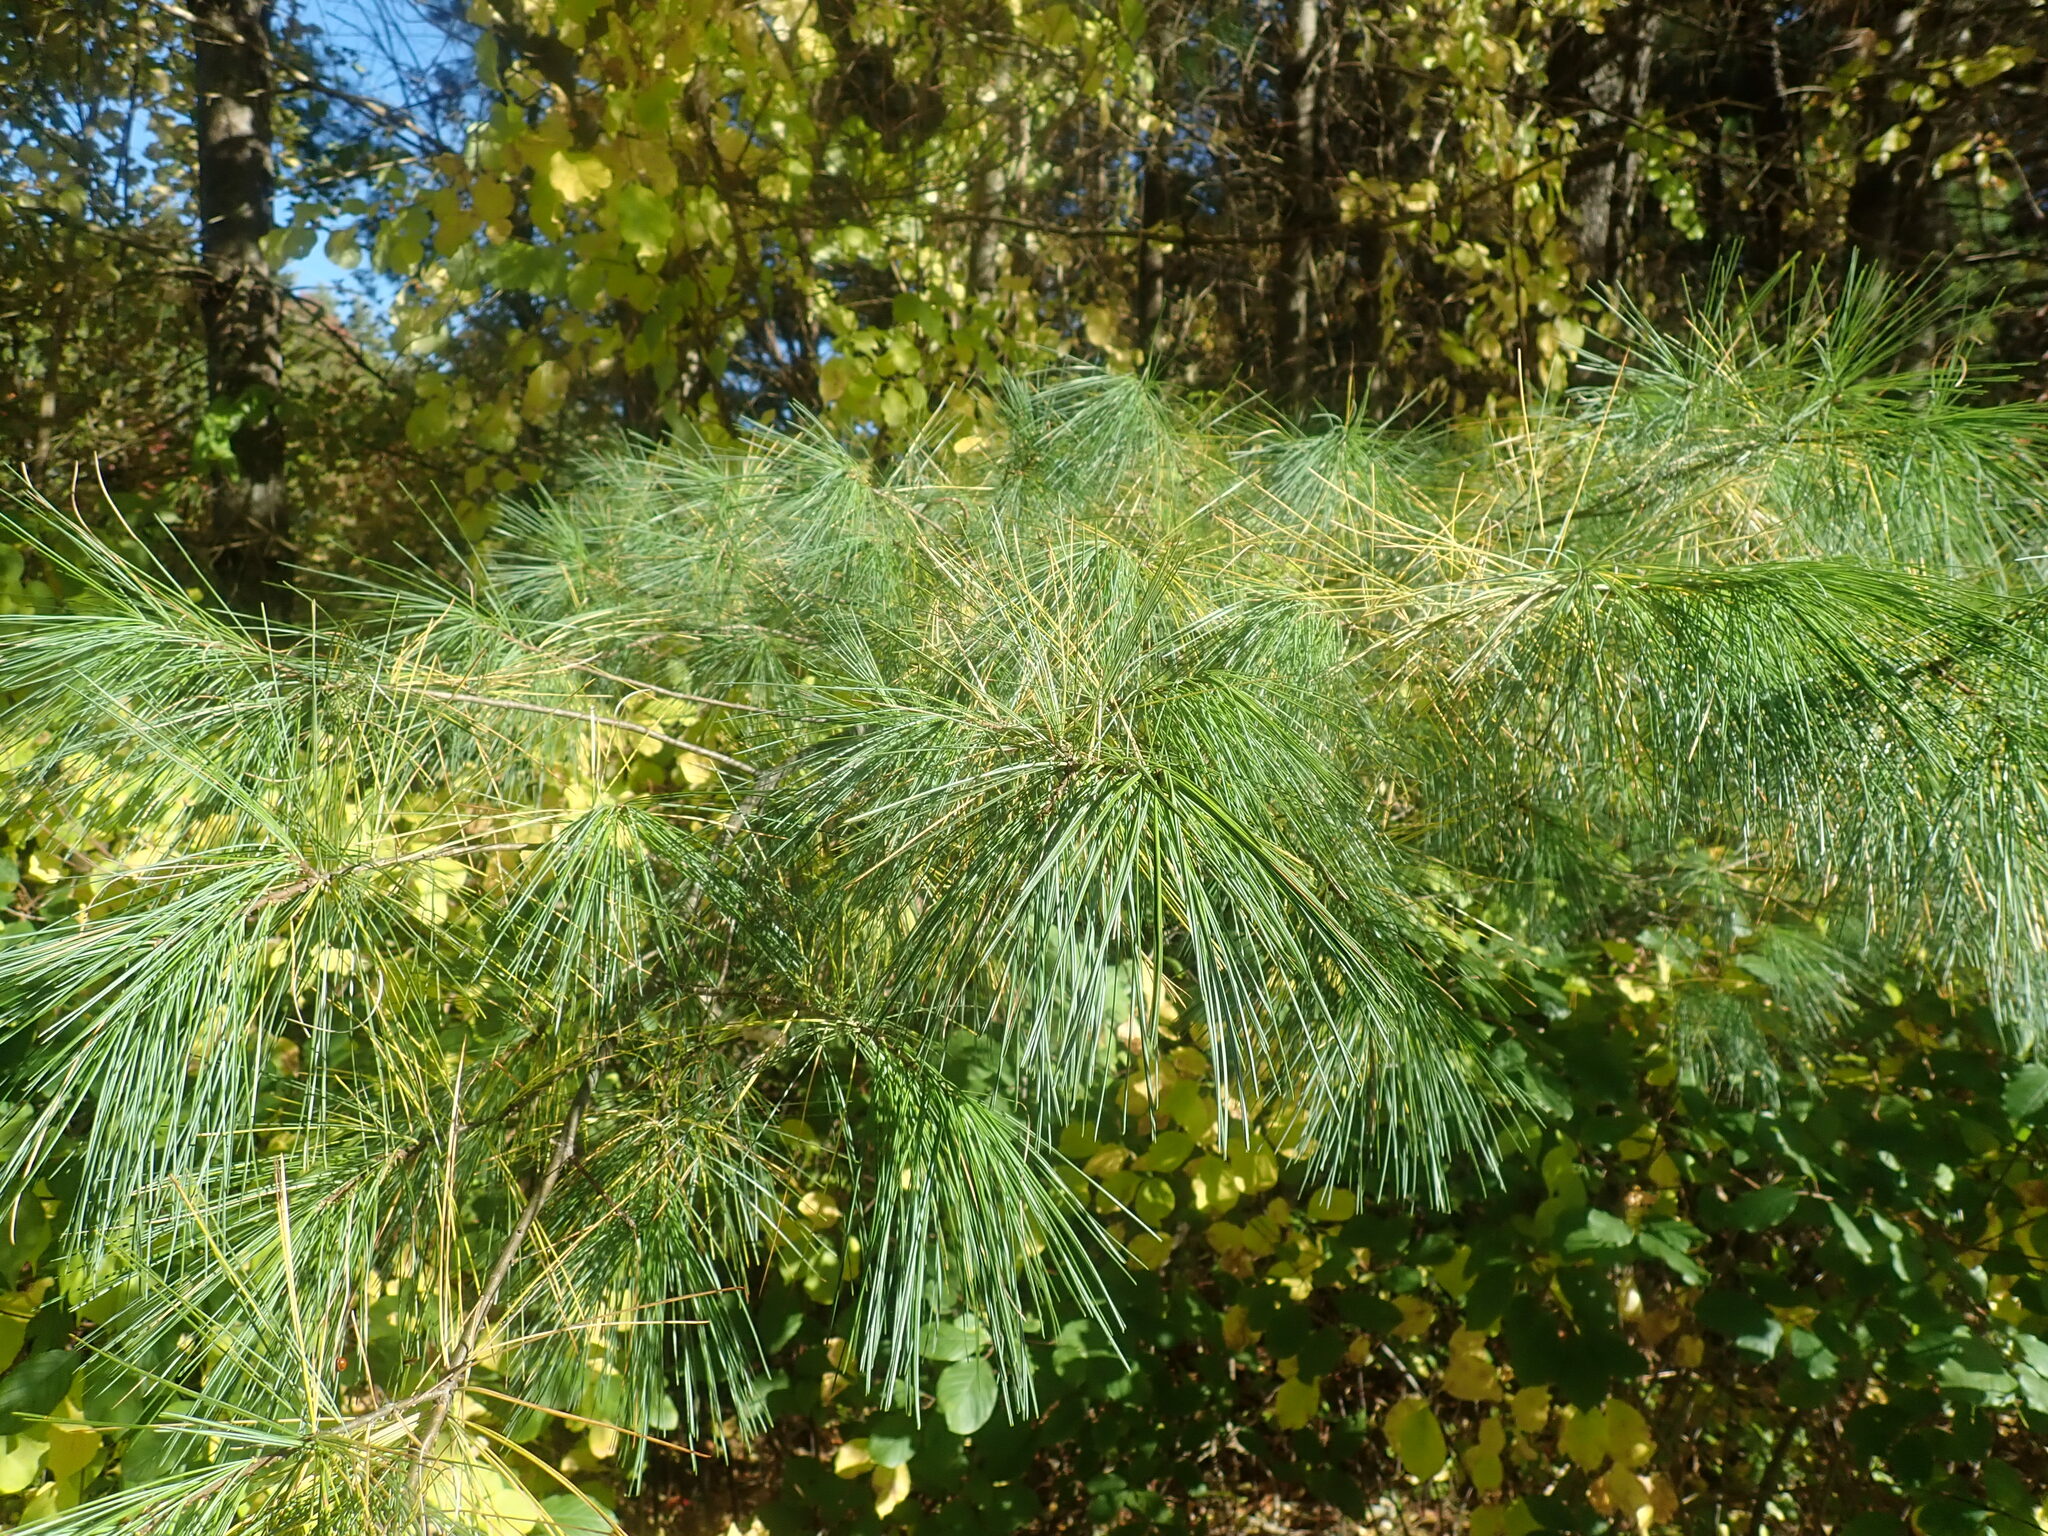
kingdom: Plantae
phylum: Tracheophyta
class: Pinopsida
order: Pinales
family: Pinaceae
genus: Pinus
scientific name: Pinus strobus
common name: Weymouth pine
